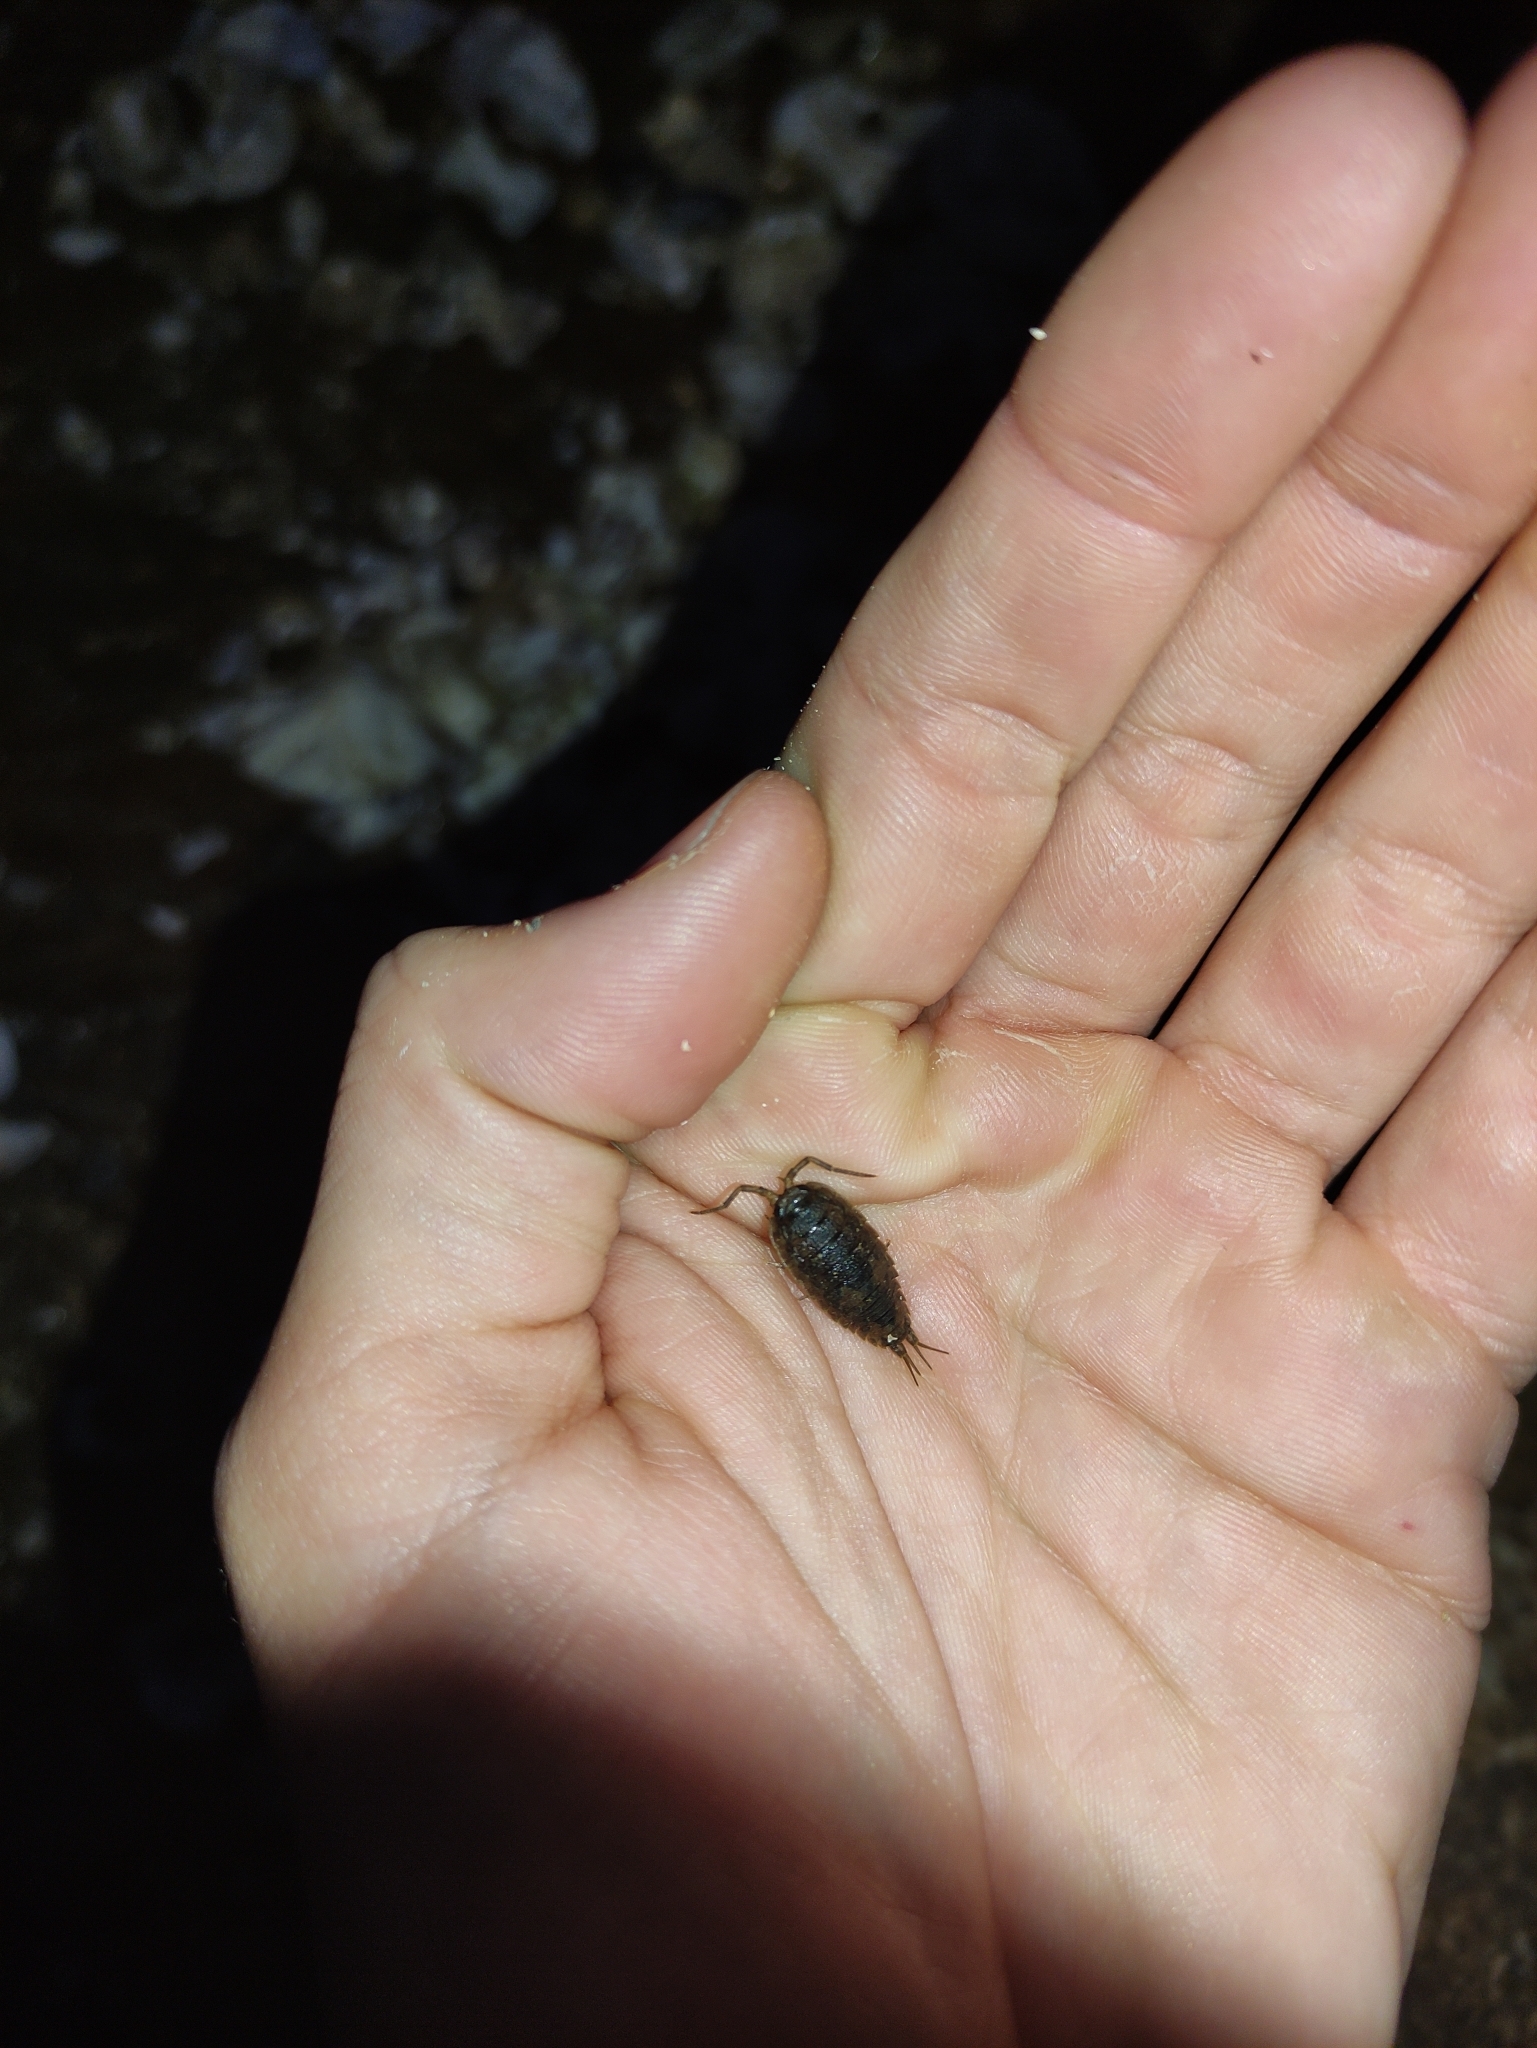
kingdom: Animalia
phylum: Arthropoda
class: Malacostraca
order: Isopoda
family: Ligiidae
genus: Ligia
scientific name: Ligia oceanica
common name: Sea slater
